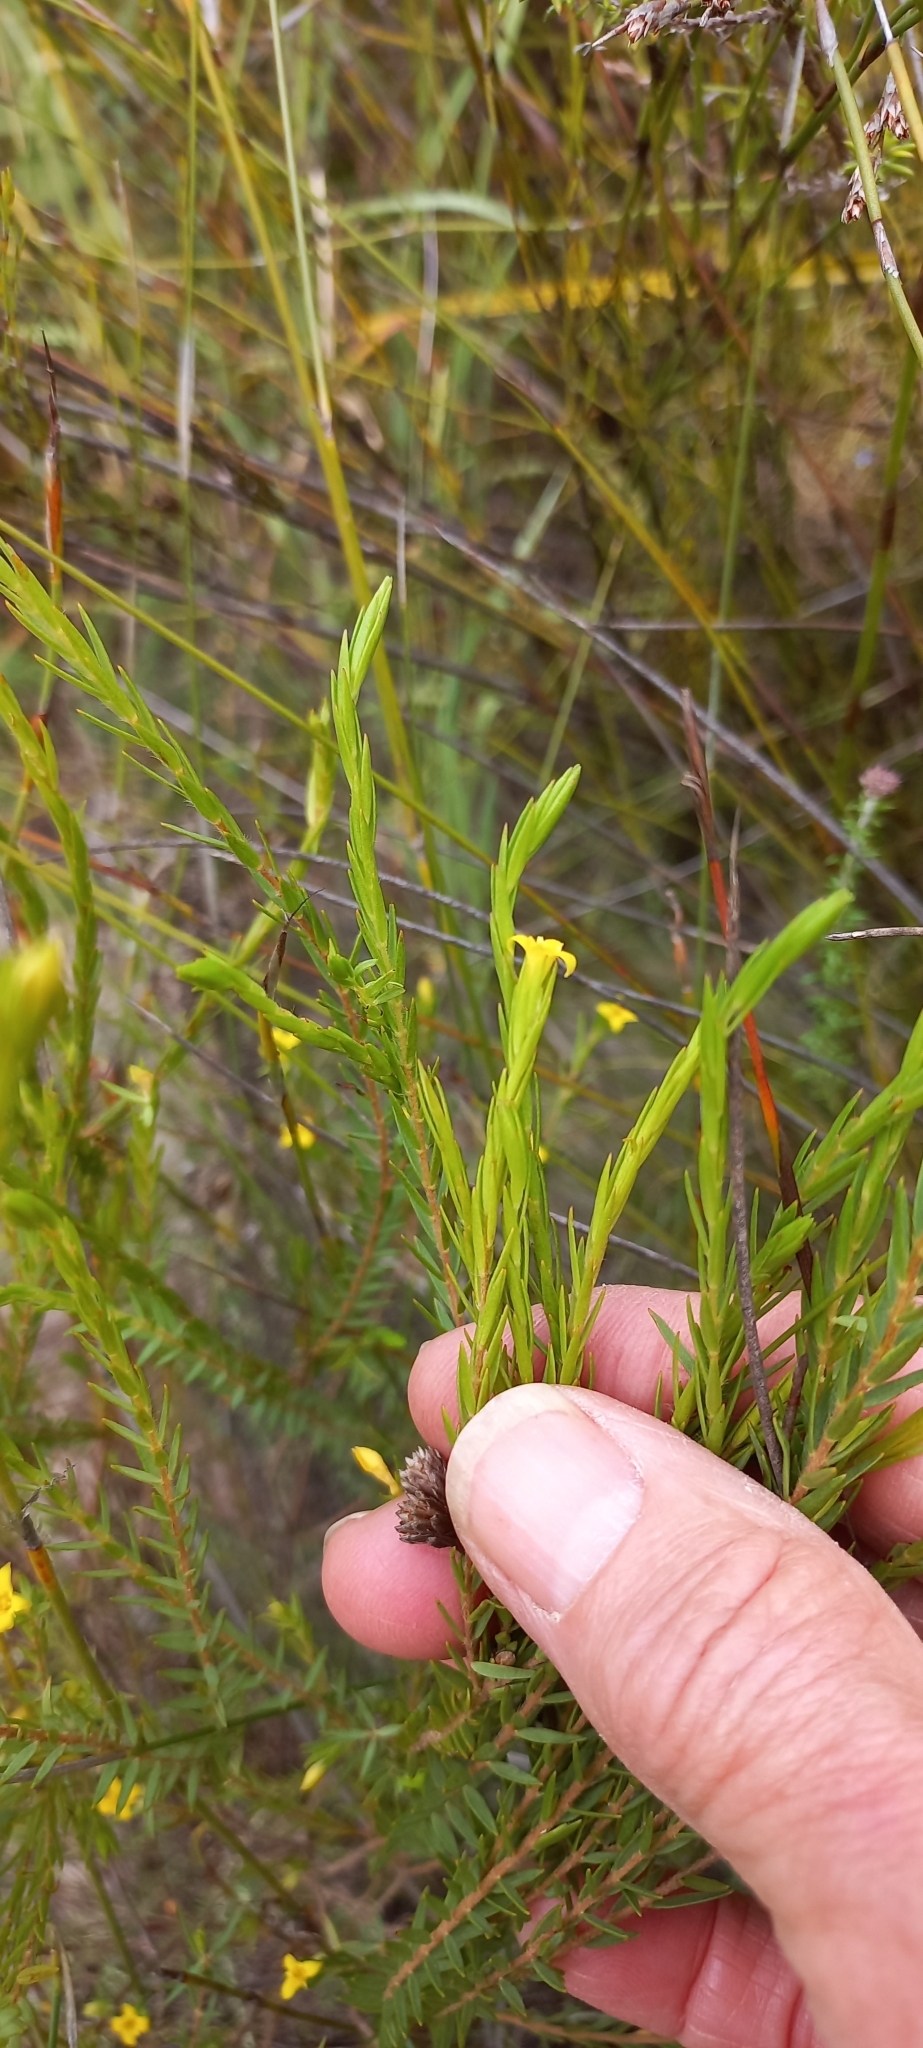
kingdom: Plantae
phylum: Tracheophyta
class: Magnoliopsida
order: Malvales
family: Thymelaeaceae
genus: Gnidia
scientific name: Gnidia galpinii
